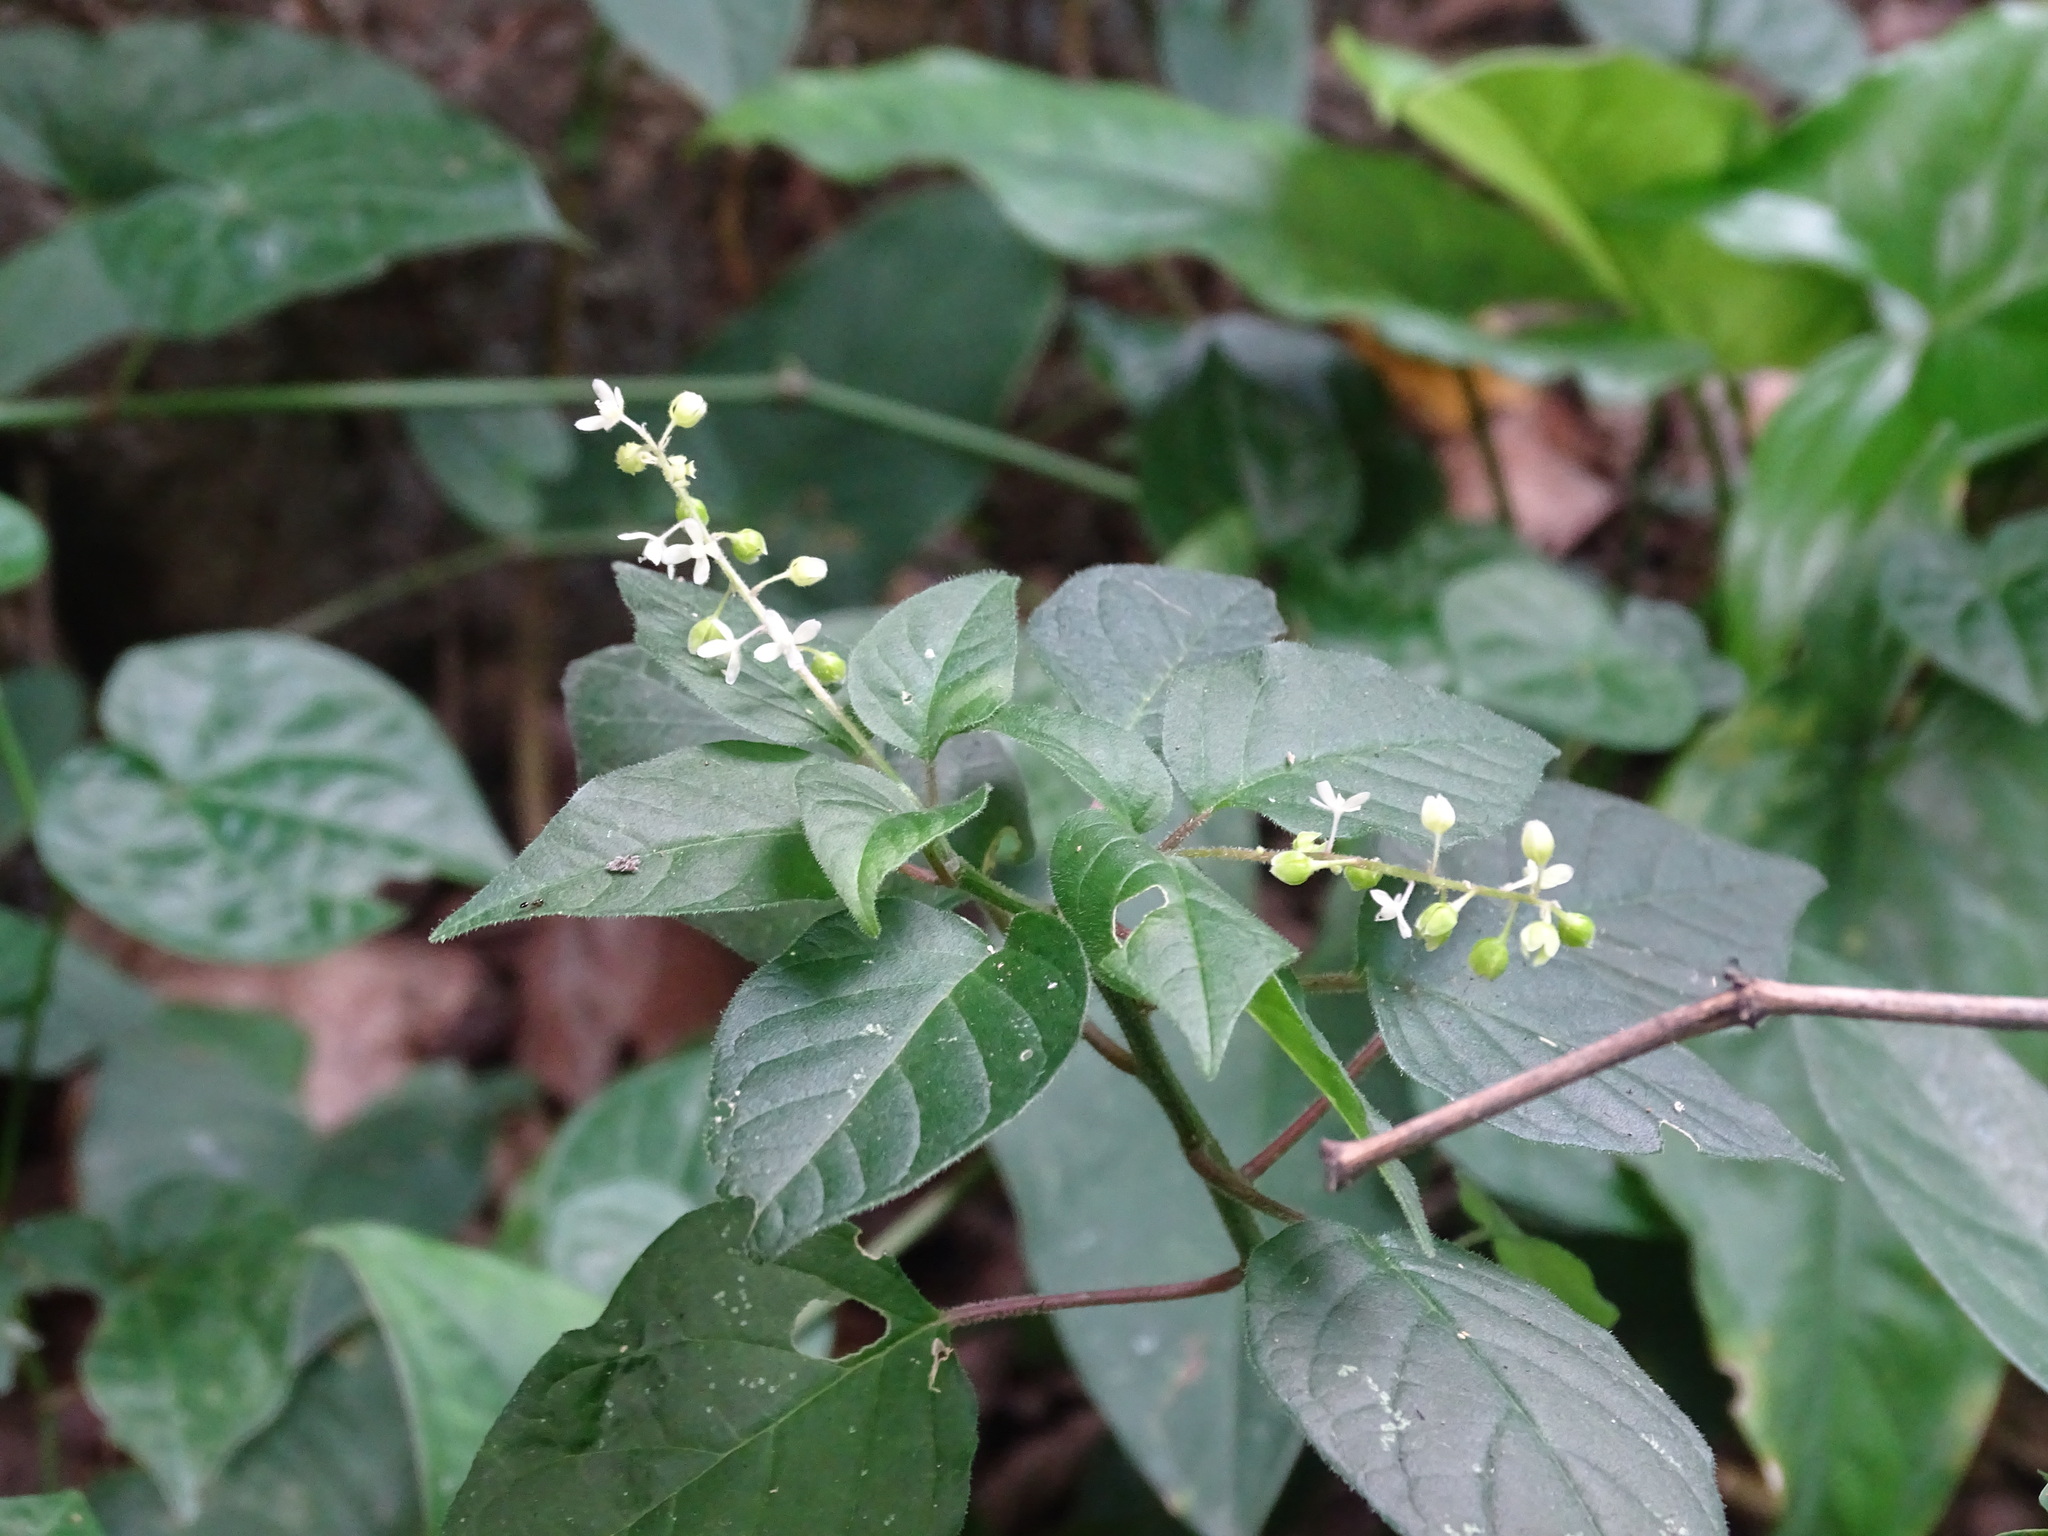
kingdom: Plantae
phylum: Tracheophyta
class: Magnoliopsida
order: Caryophyllales
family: Phytolaccaceae
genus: Rivina
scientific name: Rivina humilis
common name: Rougeplant
